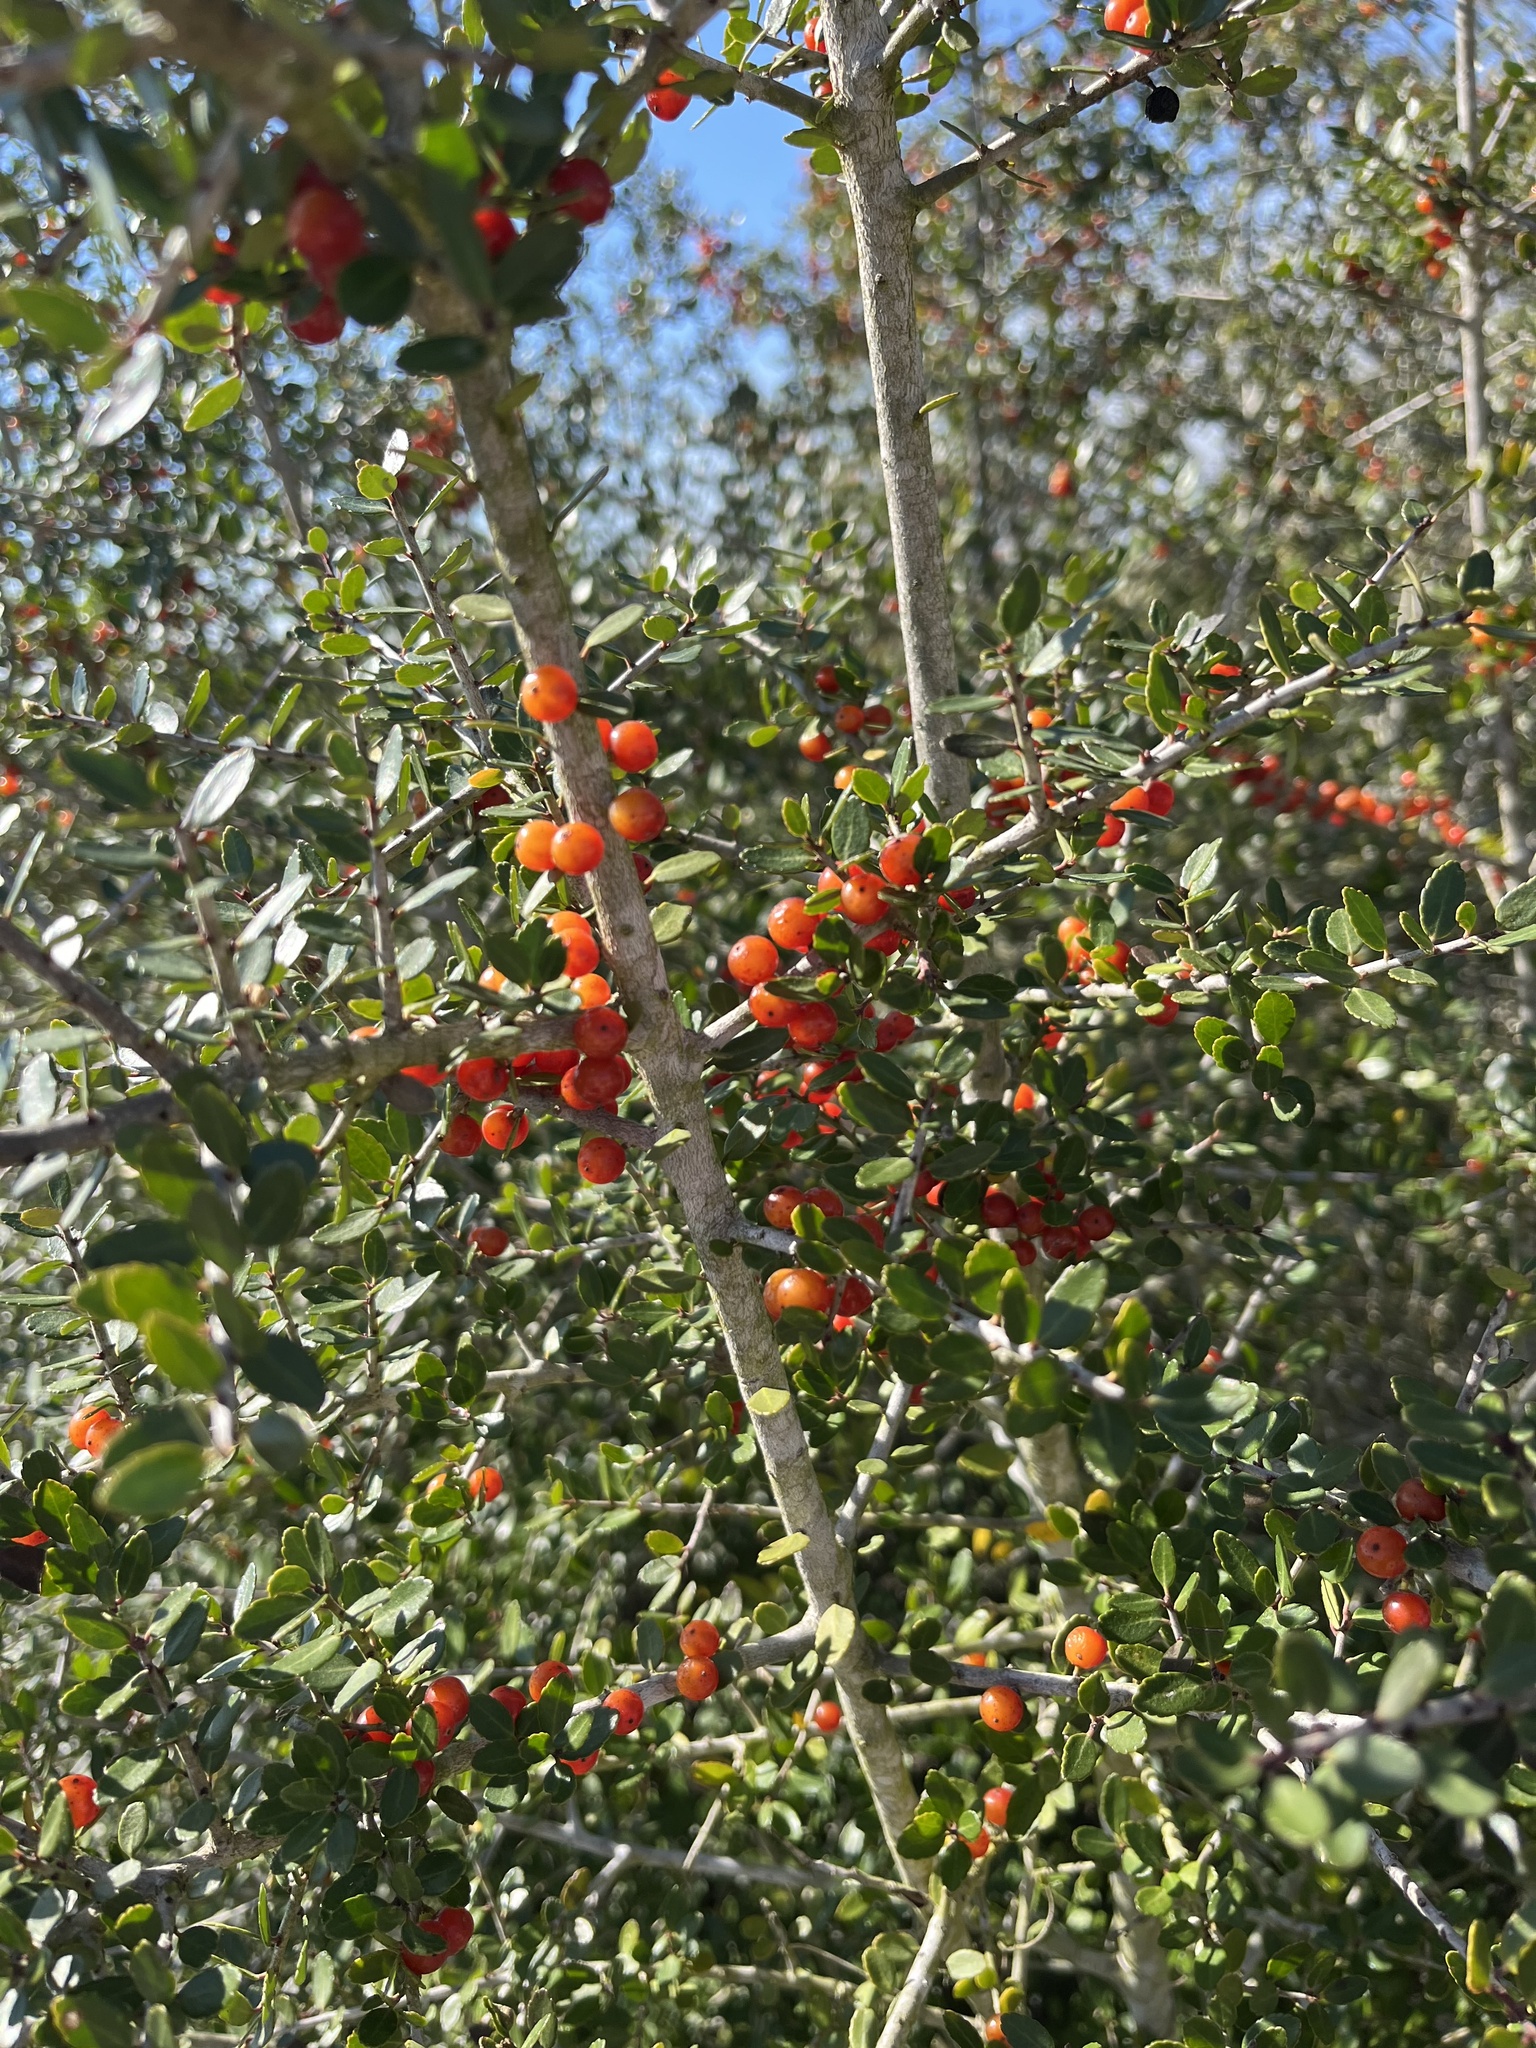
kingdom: Plantae
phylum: Tracheophyta
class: Magnoliopsida
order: Aquifoliales
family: Aquifoliaceae
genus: Ilex
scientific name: Ilex vomitoria
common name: Yaupon holly
